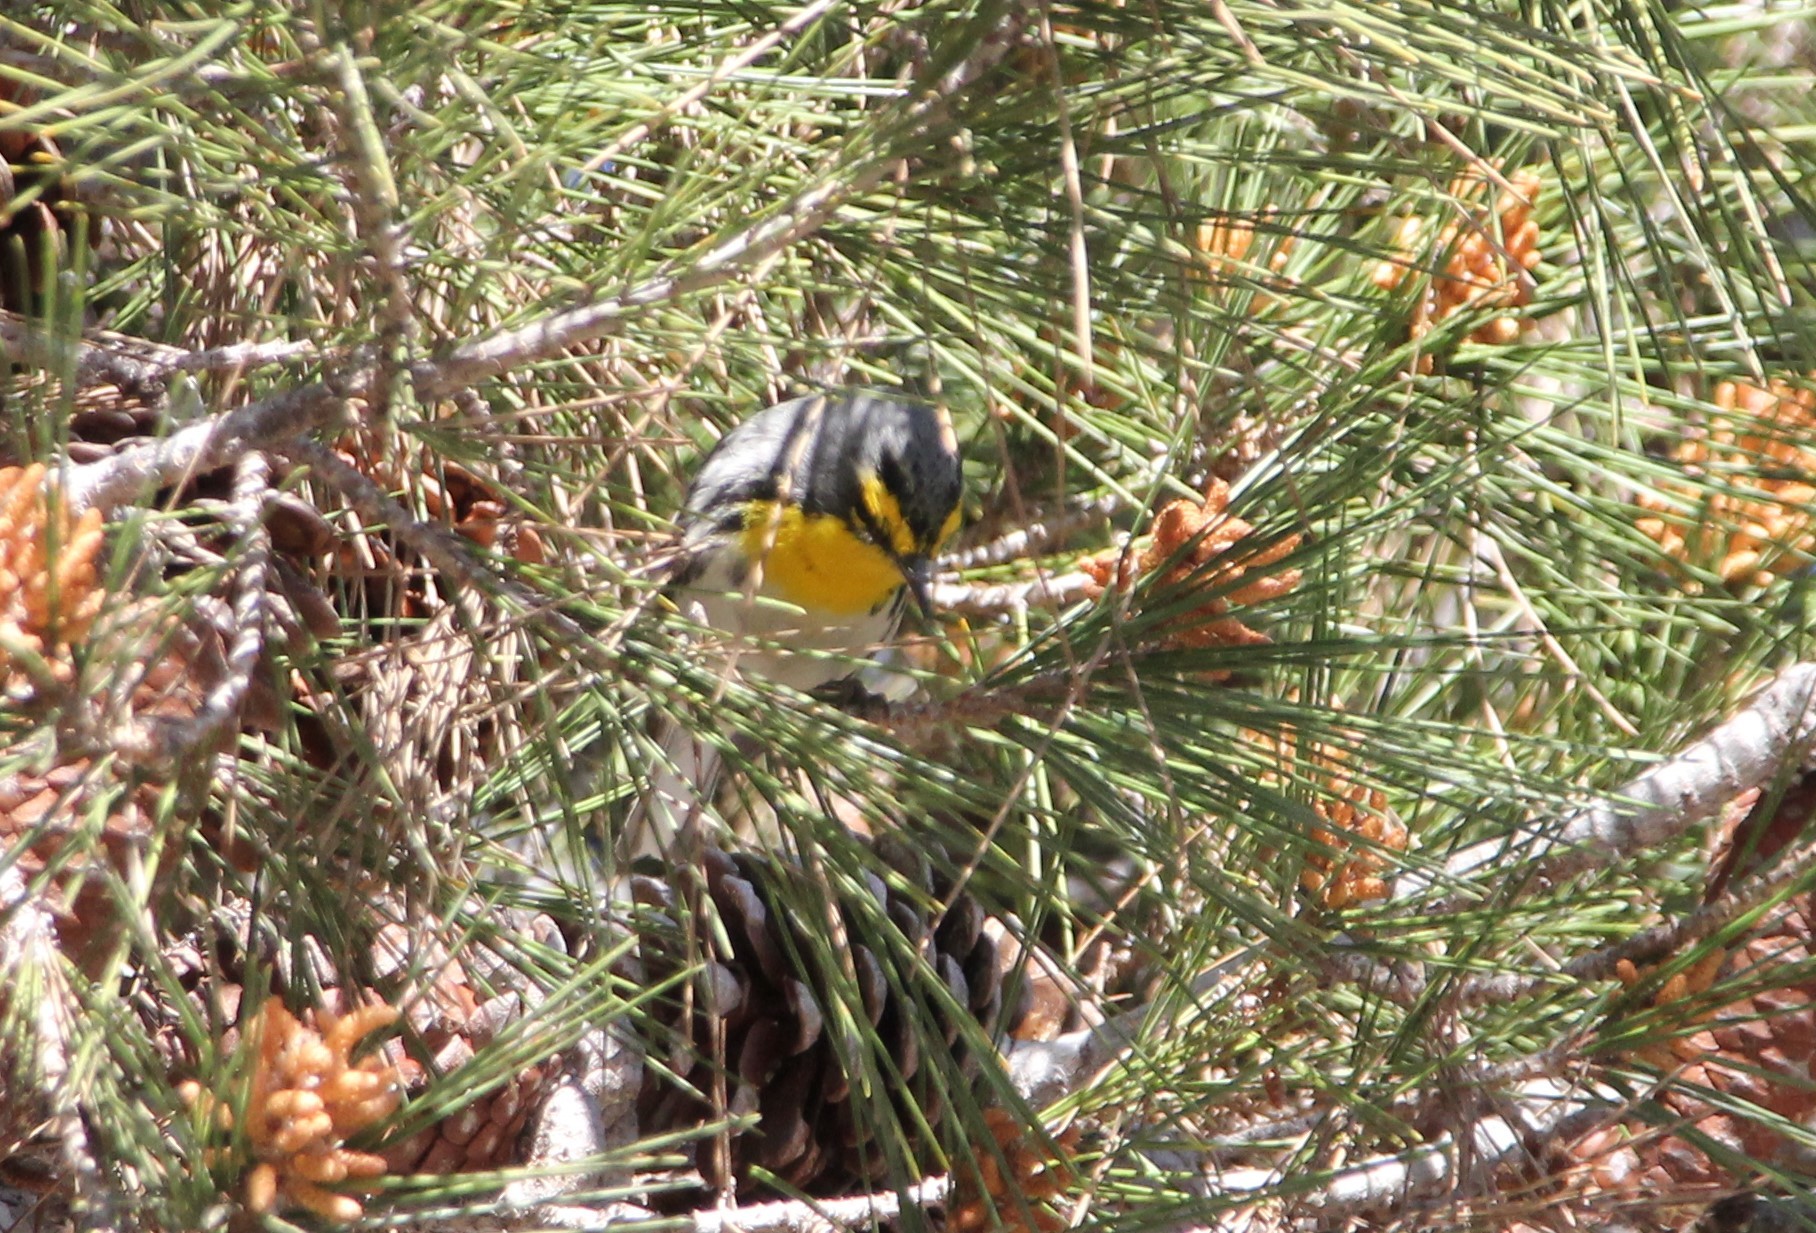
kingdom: Animalia
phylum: Chordata
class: Aves
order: Passeriformes
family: Parulidae
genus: Setophaga
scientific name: Setophaga graciae
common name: Grace's warbler
